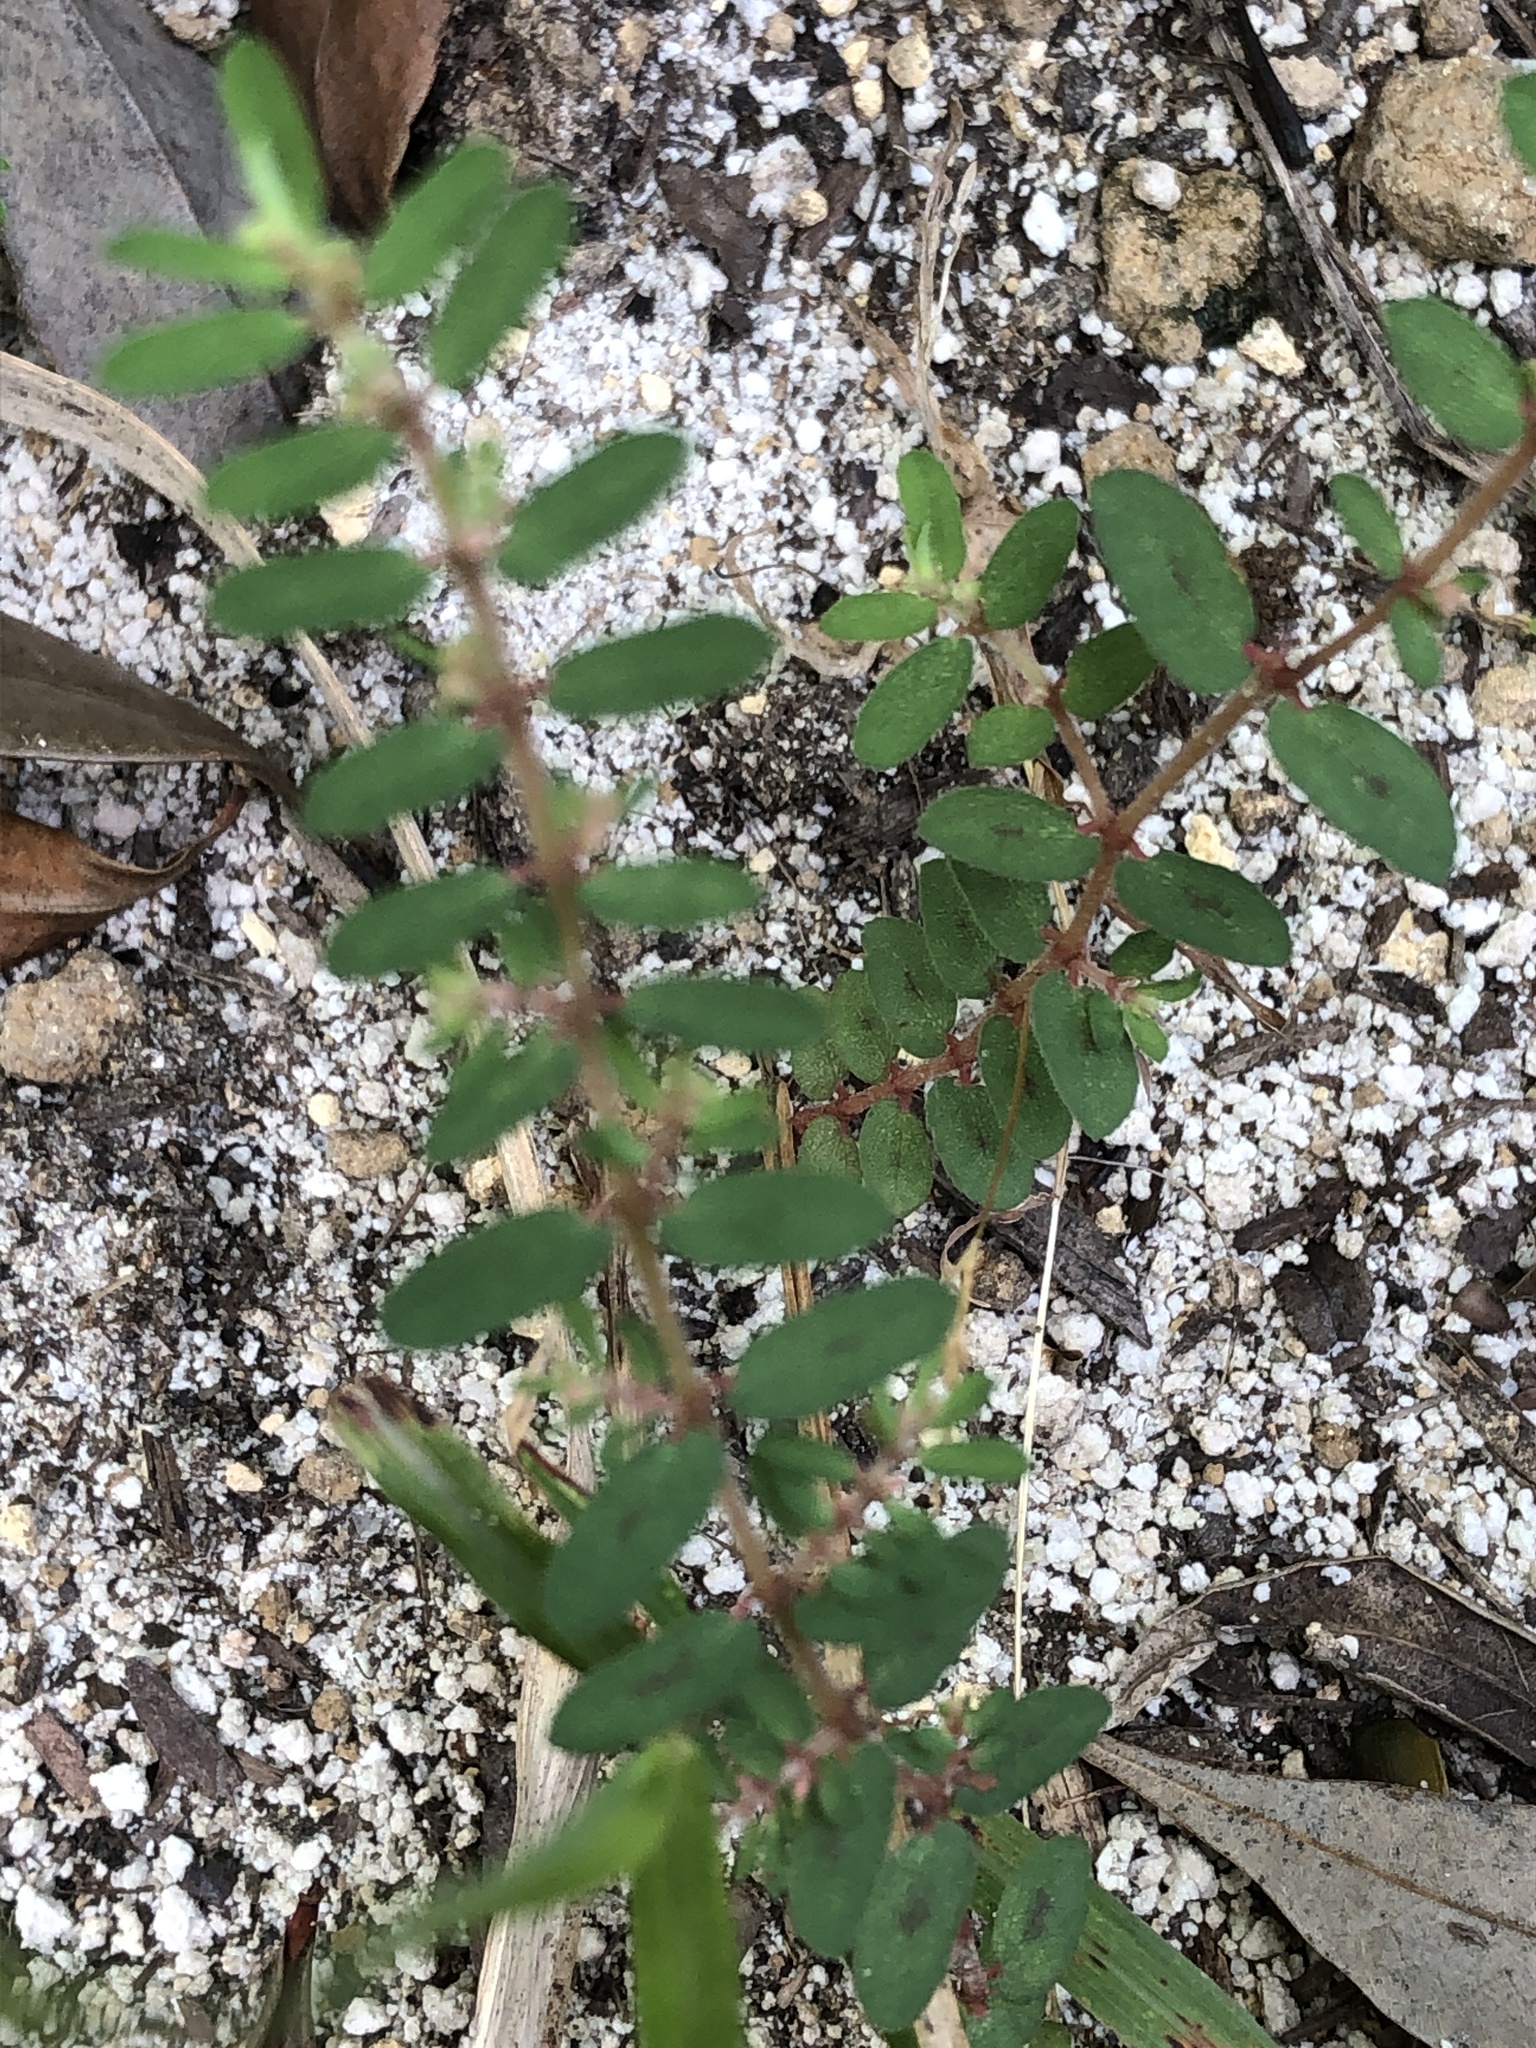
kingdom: Plantae
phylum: Tracheophyta
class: Magnoliopsida
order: Malpighiales
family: Euphorbiaceae
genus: Euphorbia
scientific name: Euphorbia maculata
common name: Spotted spurge
